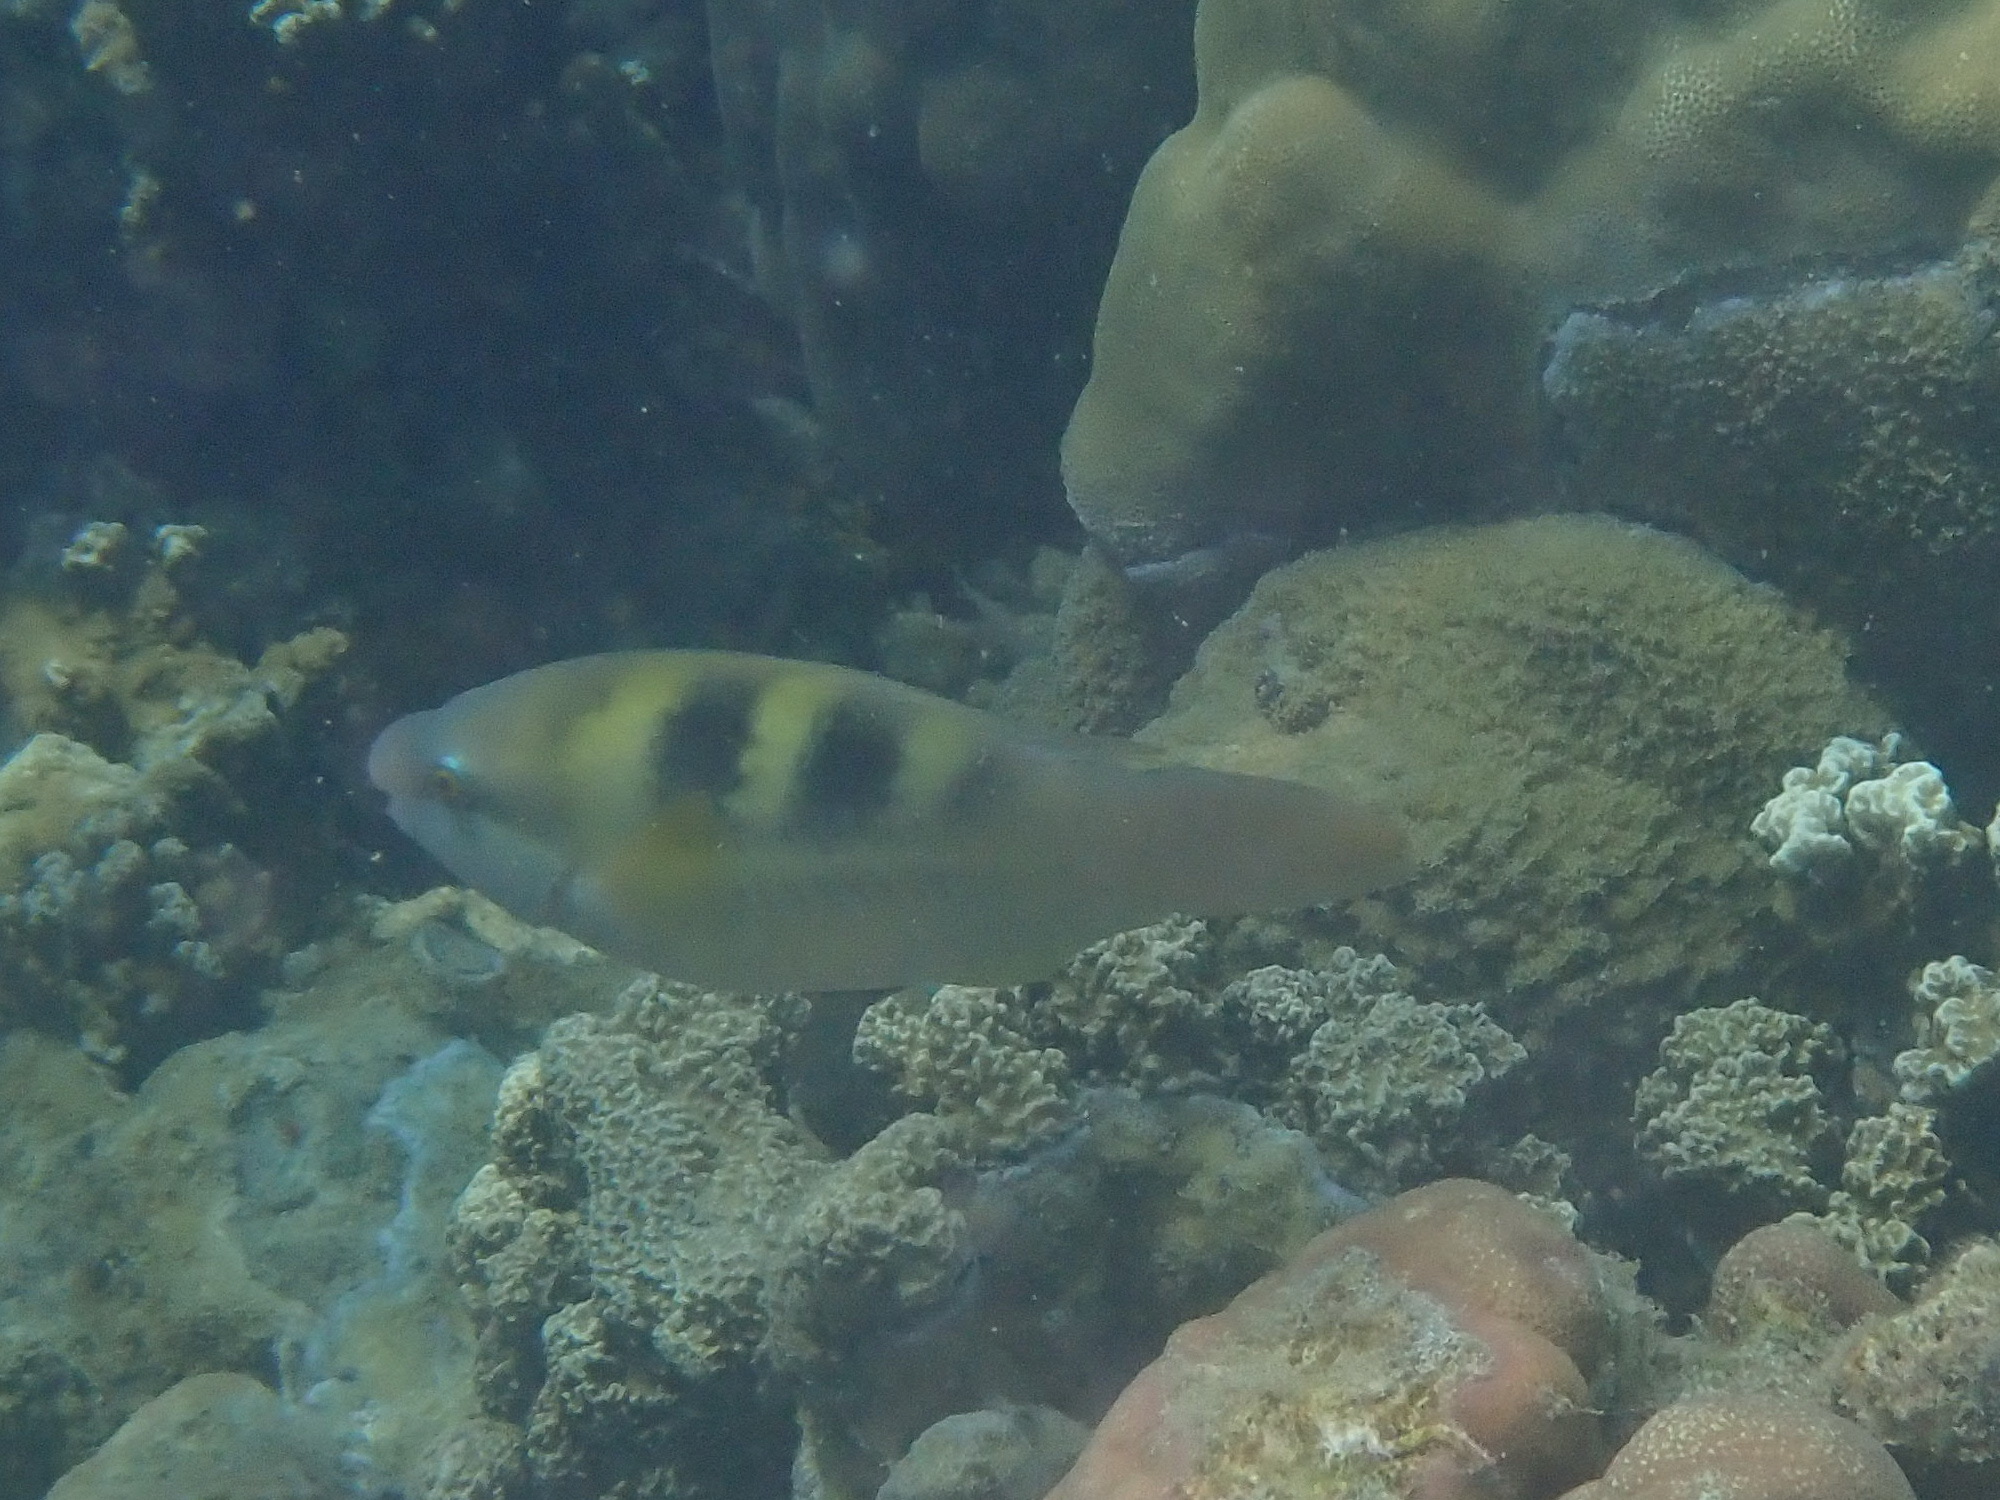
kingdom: Animalia
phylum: Chordata
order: Perciformes
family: Scaridae
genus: Scarus
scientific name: Scarus dimidiatus
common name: Yellowbarred parrotfish
